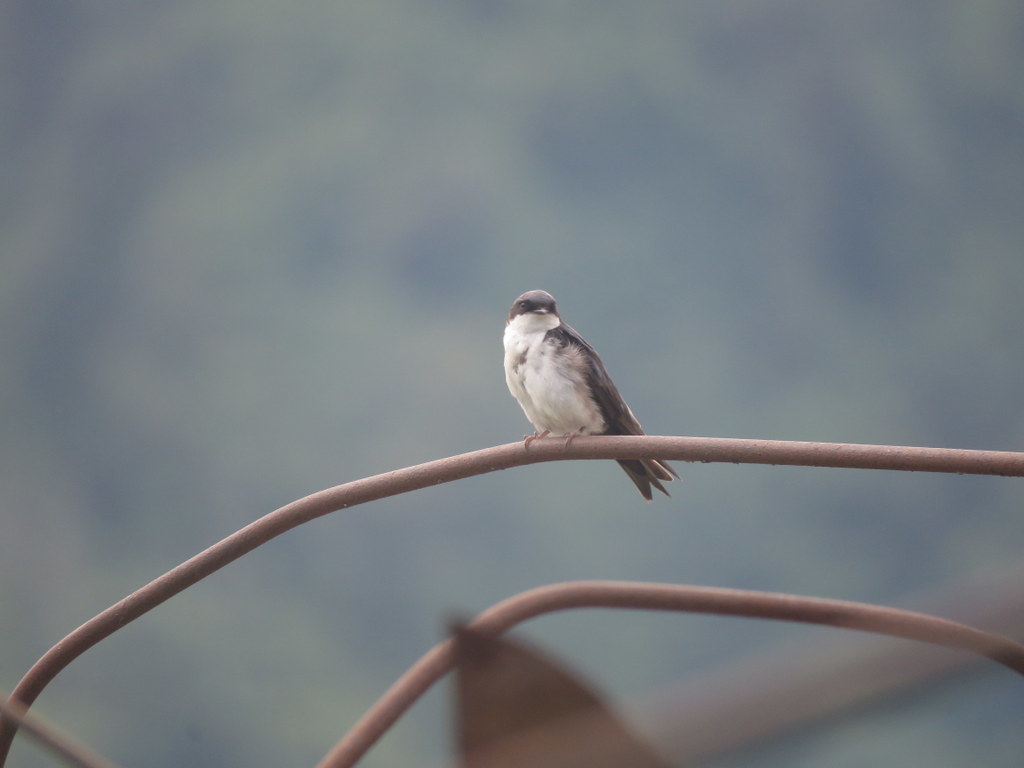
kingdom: Animalia
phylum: Chordata
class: Aves
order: Passeriformes
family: Hirundinidae
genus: Notiochelidon
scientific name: Notiochelidon cyanoleuca
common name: Blue-and-white swallow
